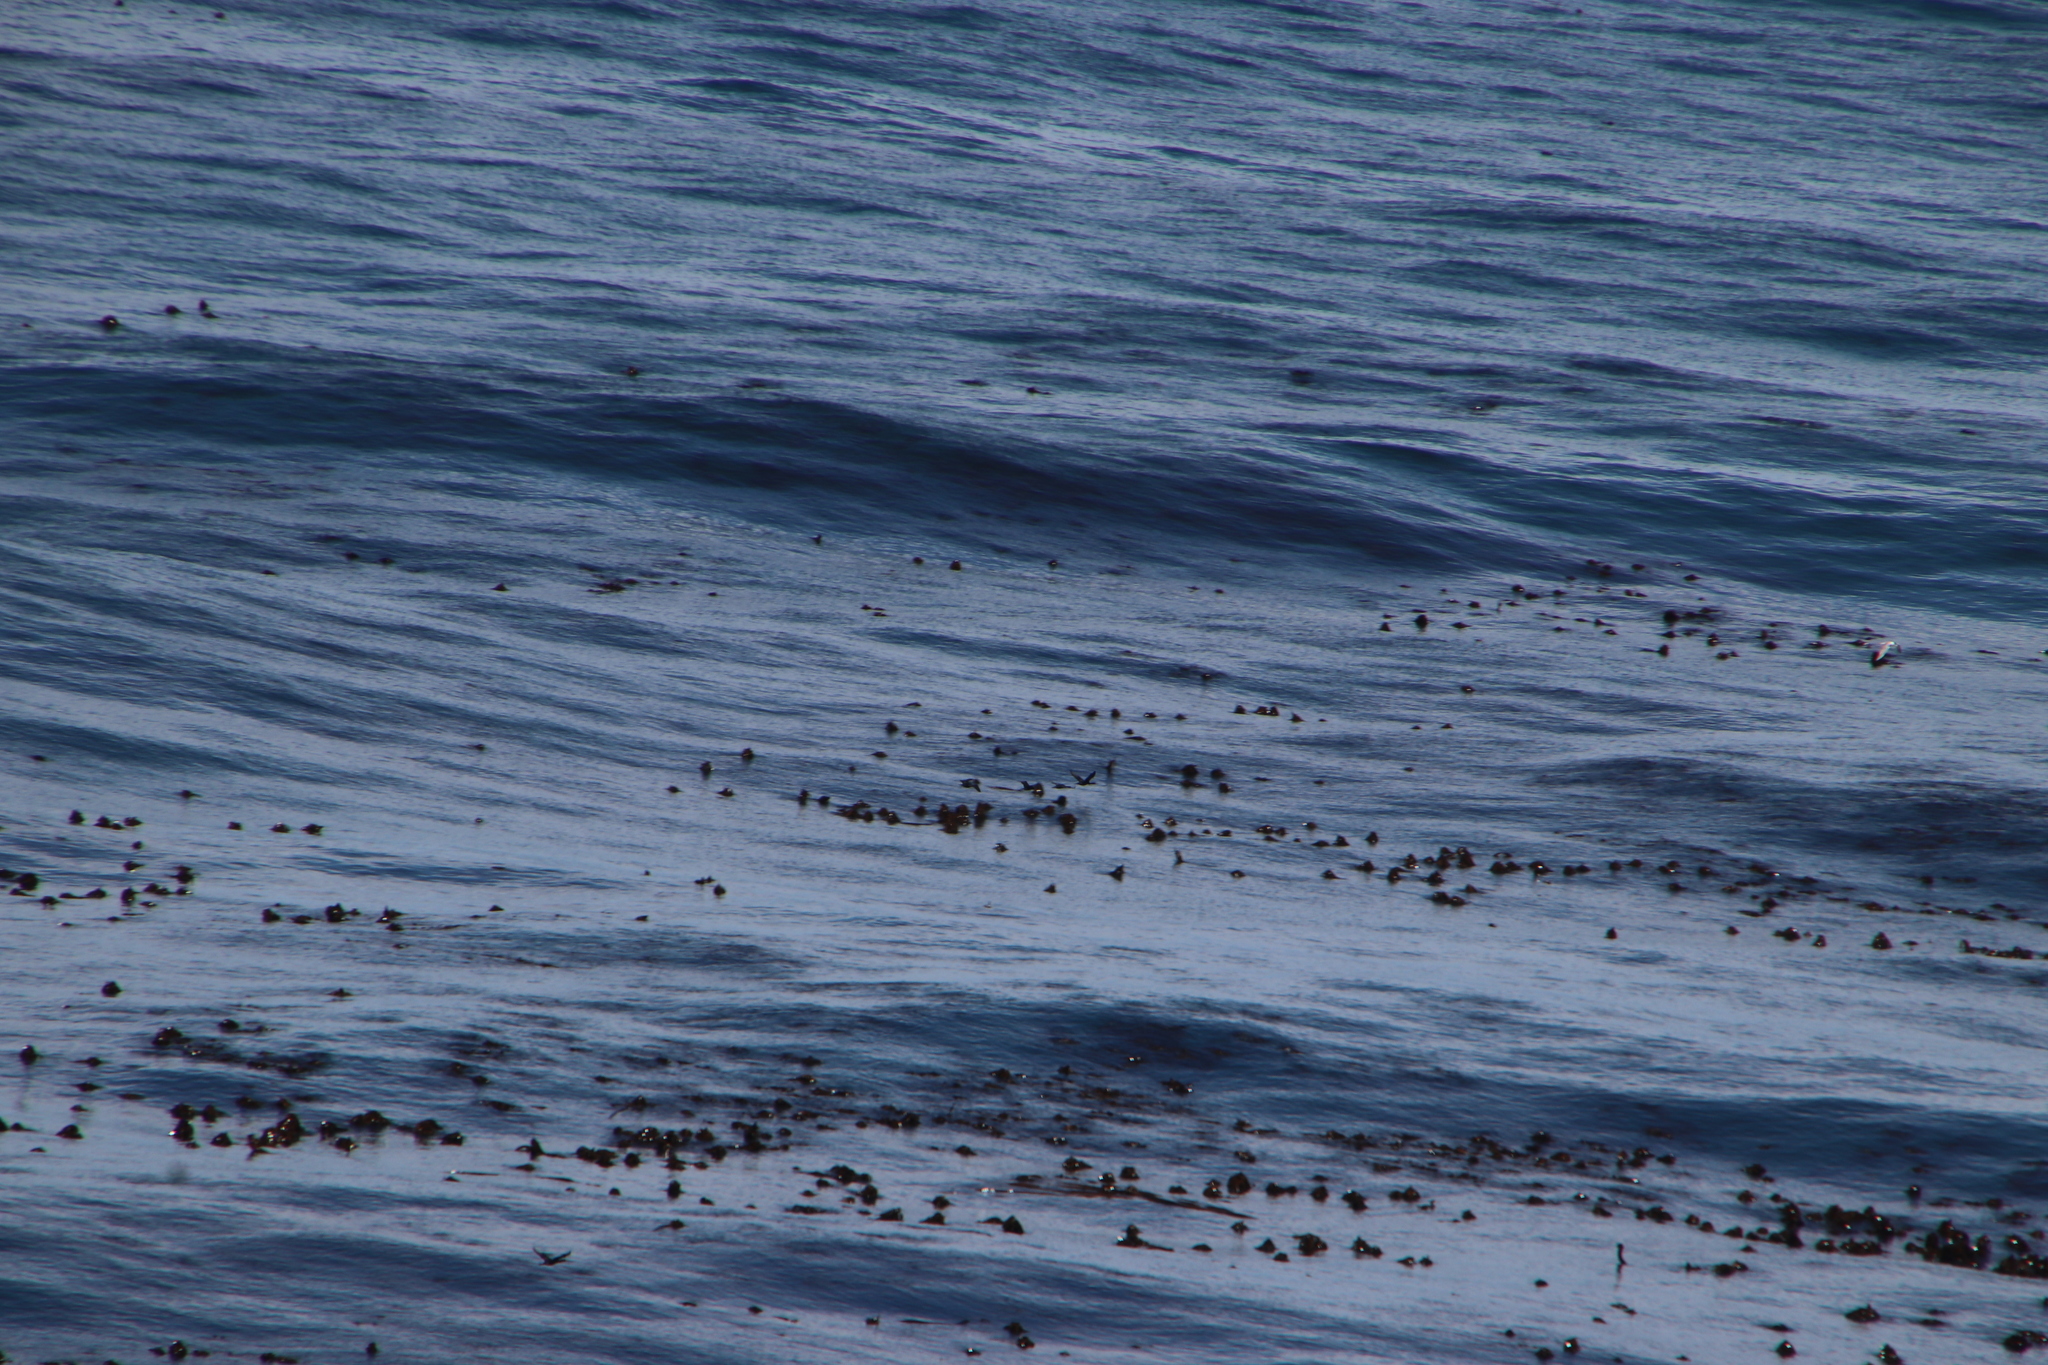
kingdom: Chromista
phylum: Ochrophyta
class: Phaeophyceae
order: Laminariales
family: Lessoniaceae
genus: Ecklonia
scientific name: Ecklonia
